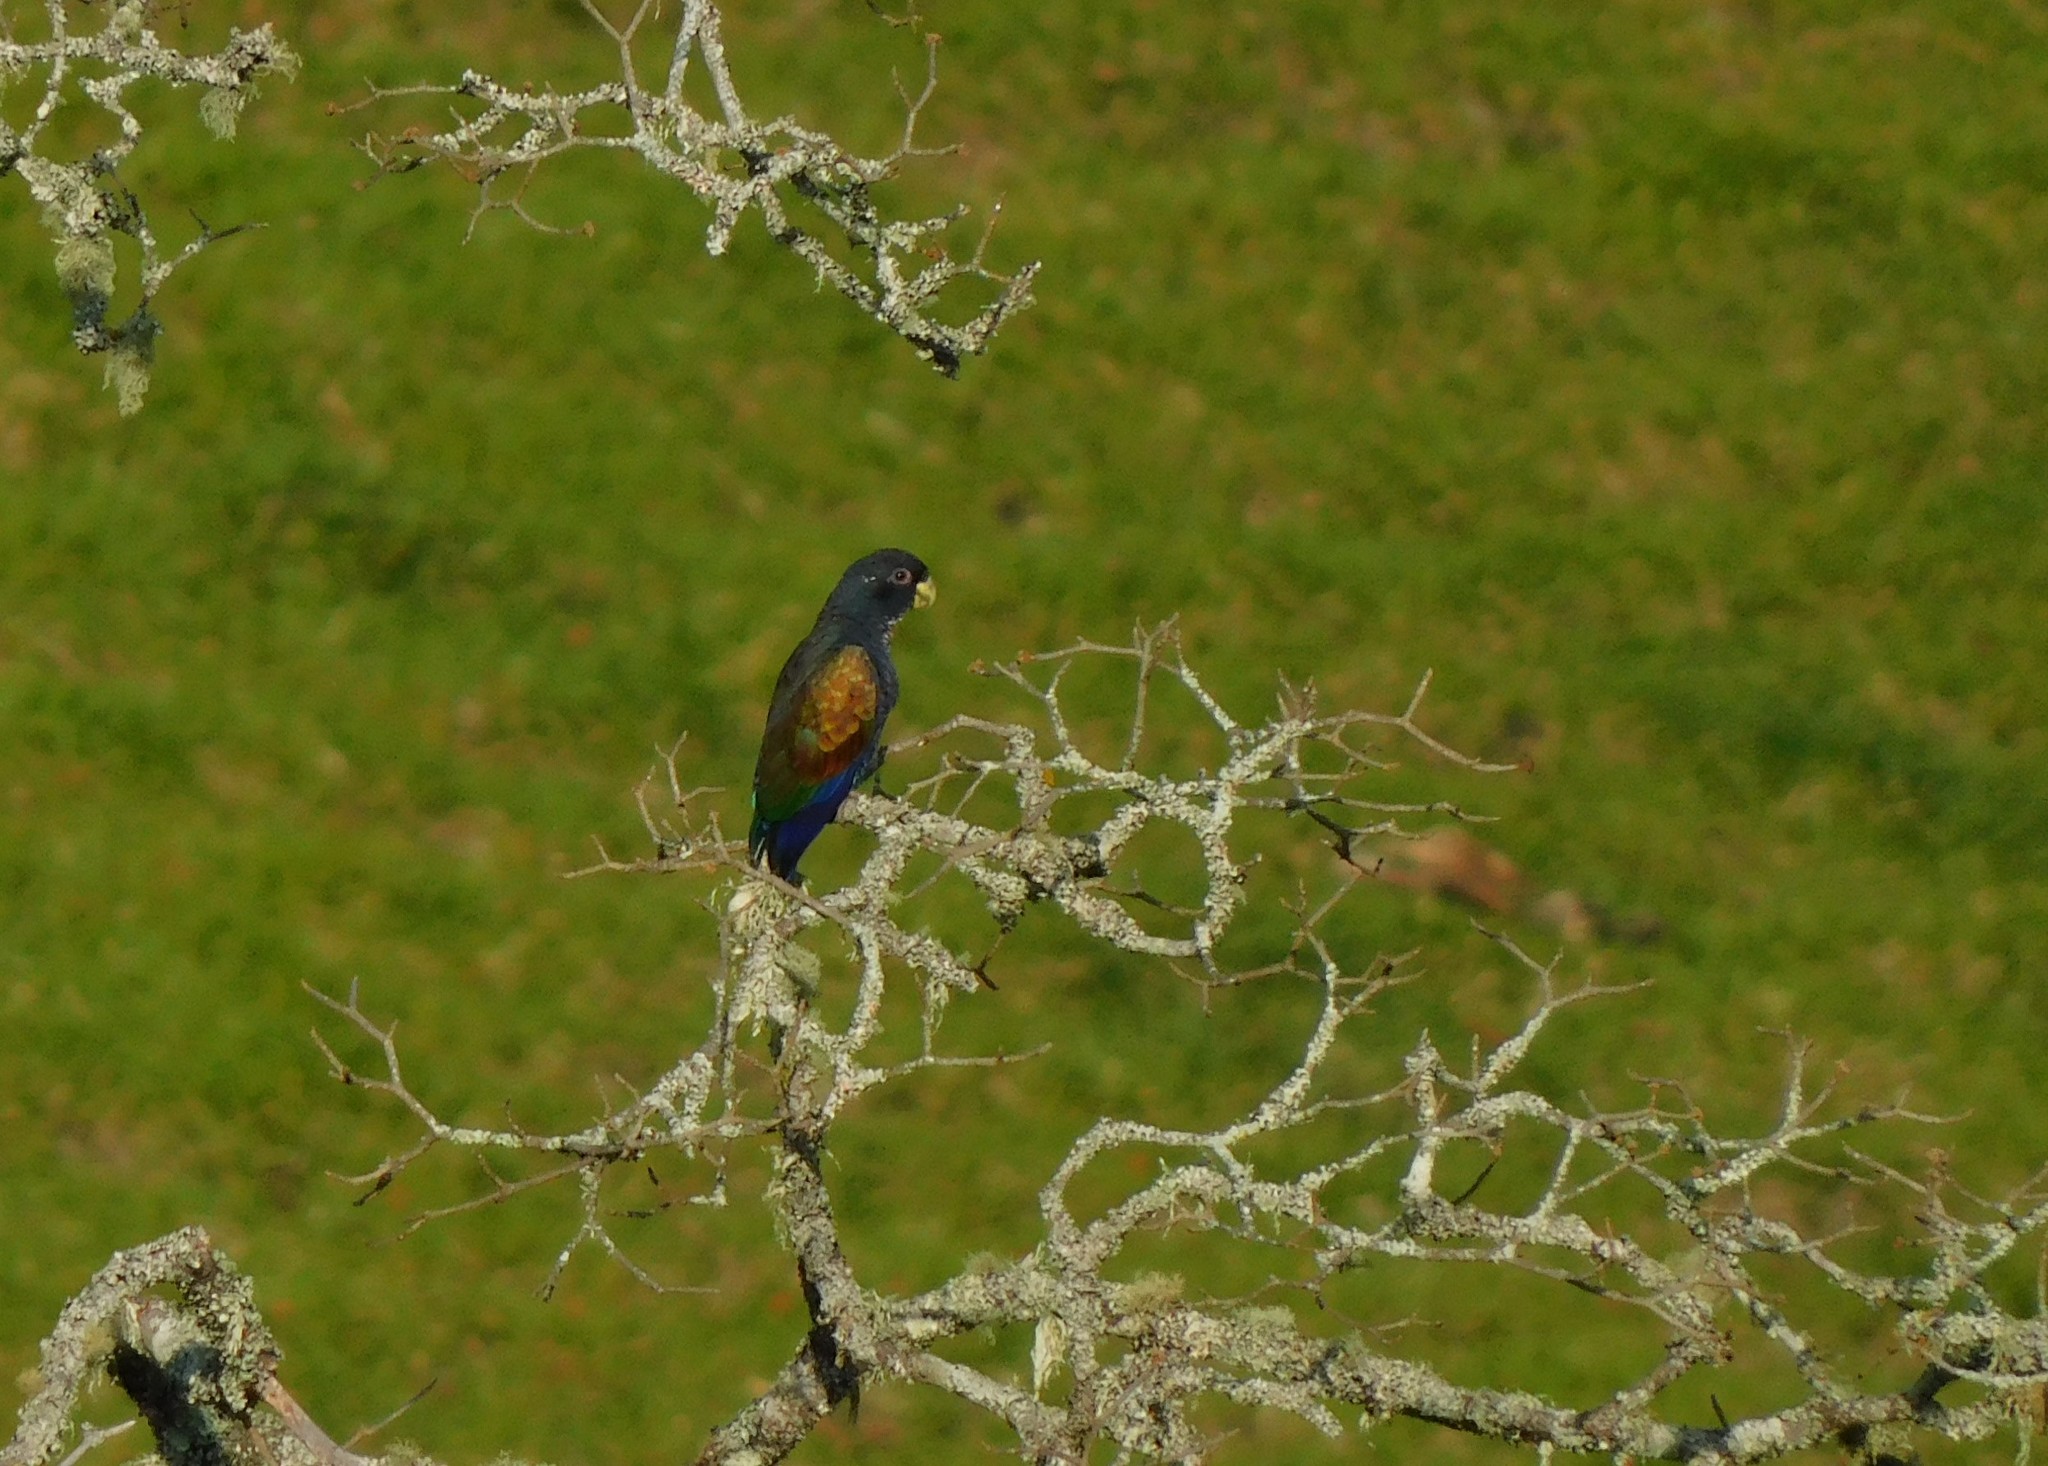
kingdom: Animalia
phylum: Chordata
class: Aves
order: Psittaciformes
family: Psittacidae
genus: Pionus
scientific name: Pionus chalcopterus
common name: Bronze-winged parrot
